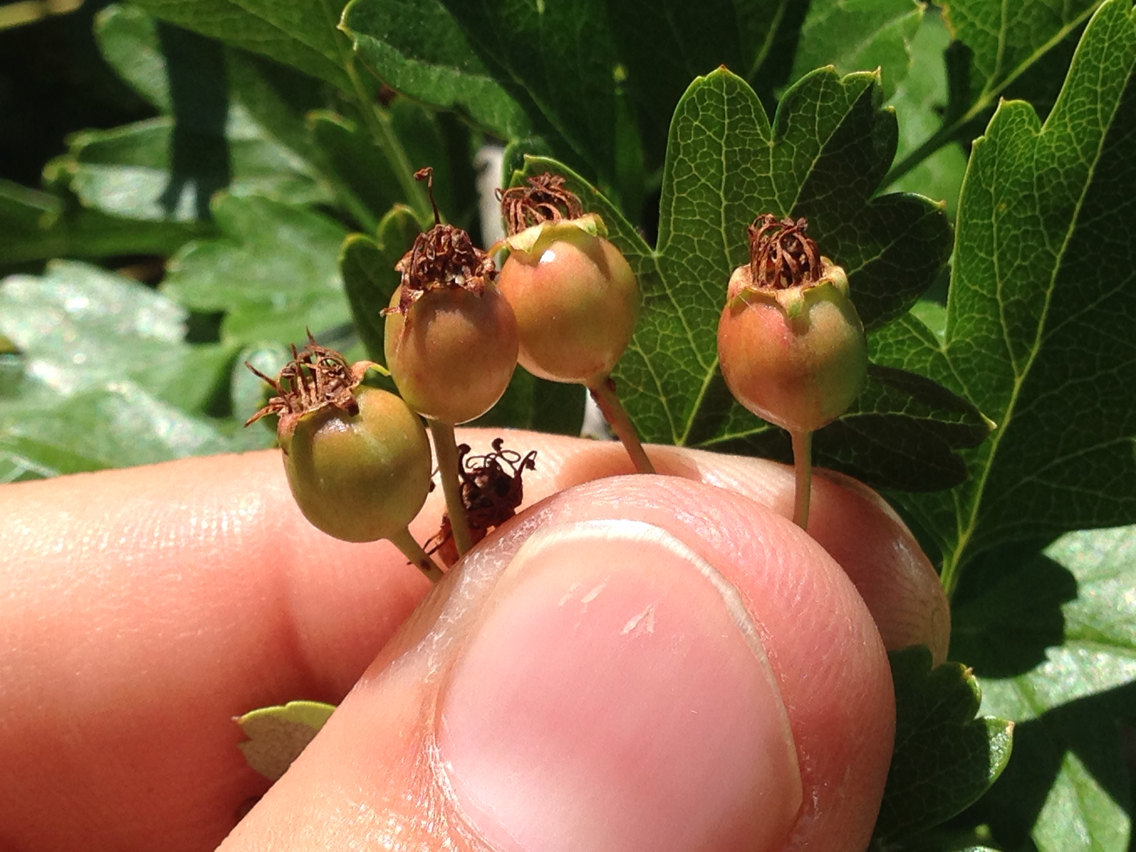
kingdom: Plantae
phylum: Tracheophyta
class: Magnoliopsida
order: Rosales
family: Rosaceae
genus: Crataegus
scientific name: Crataegus monogyna
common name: Hawthorn
